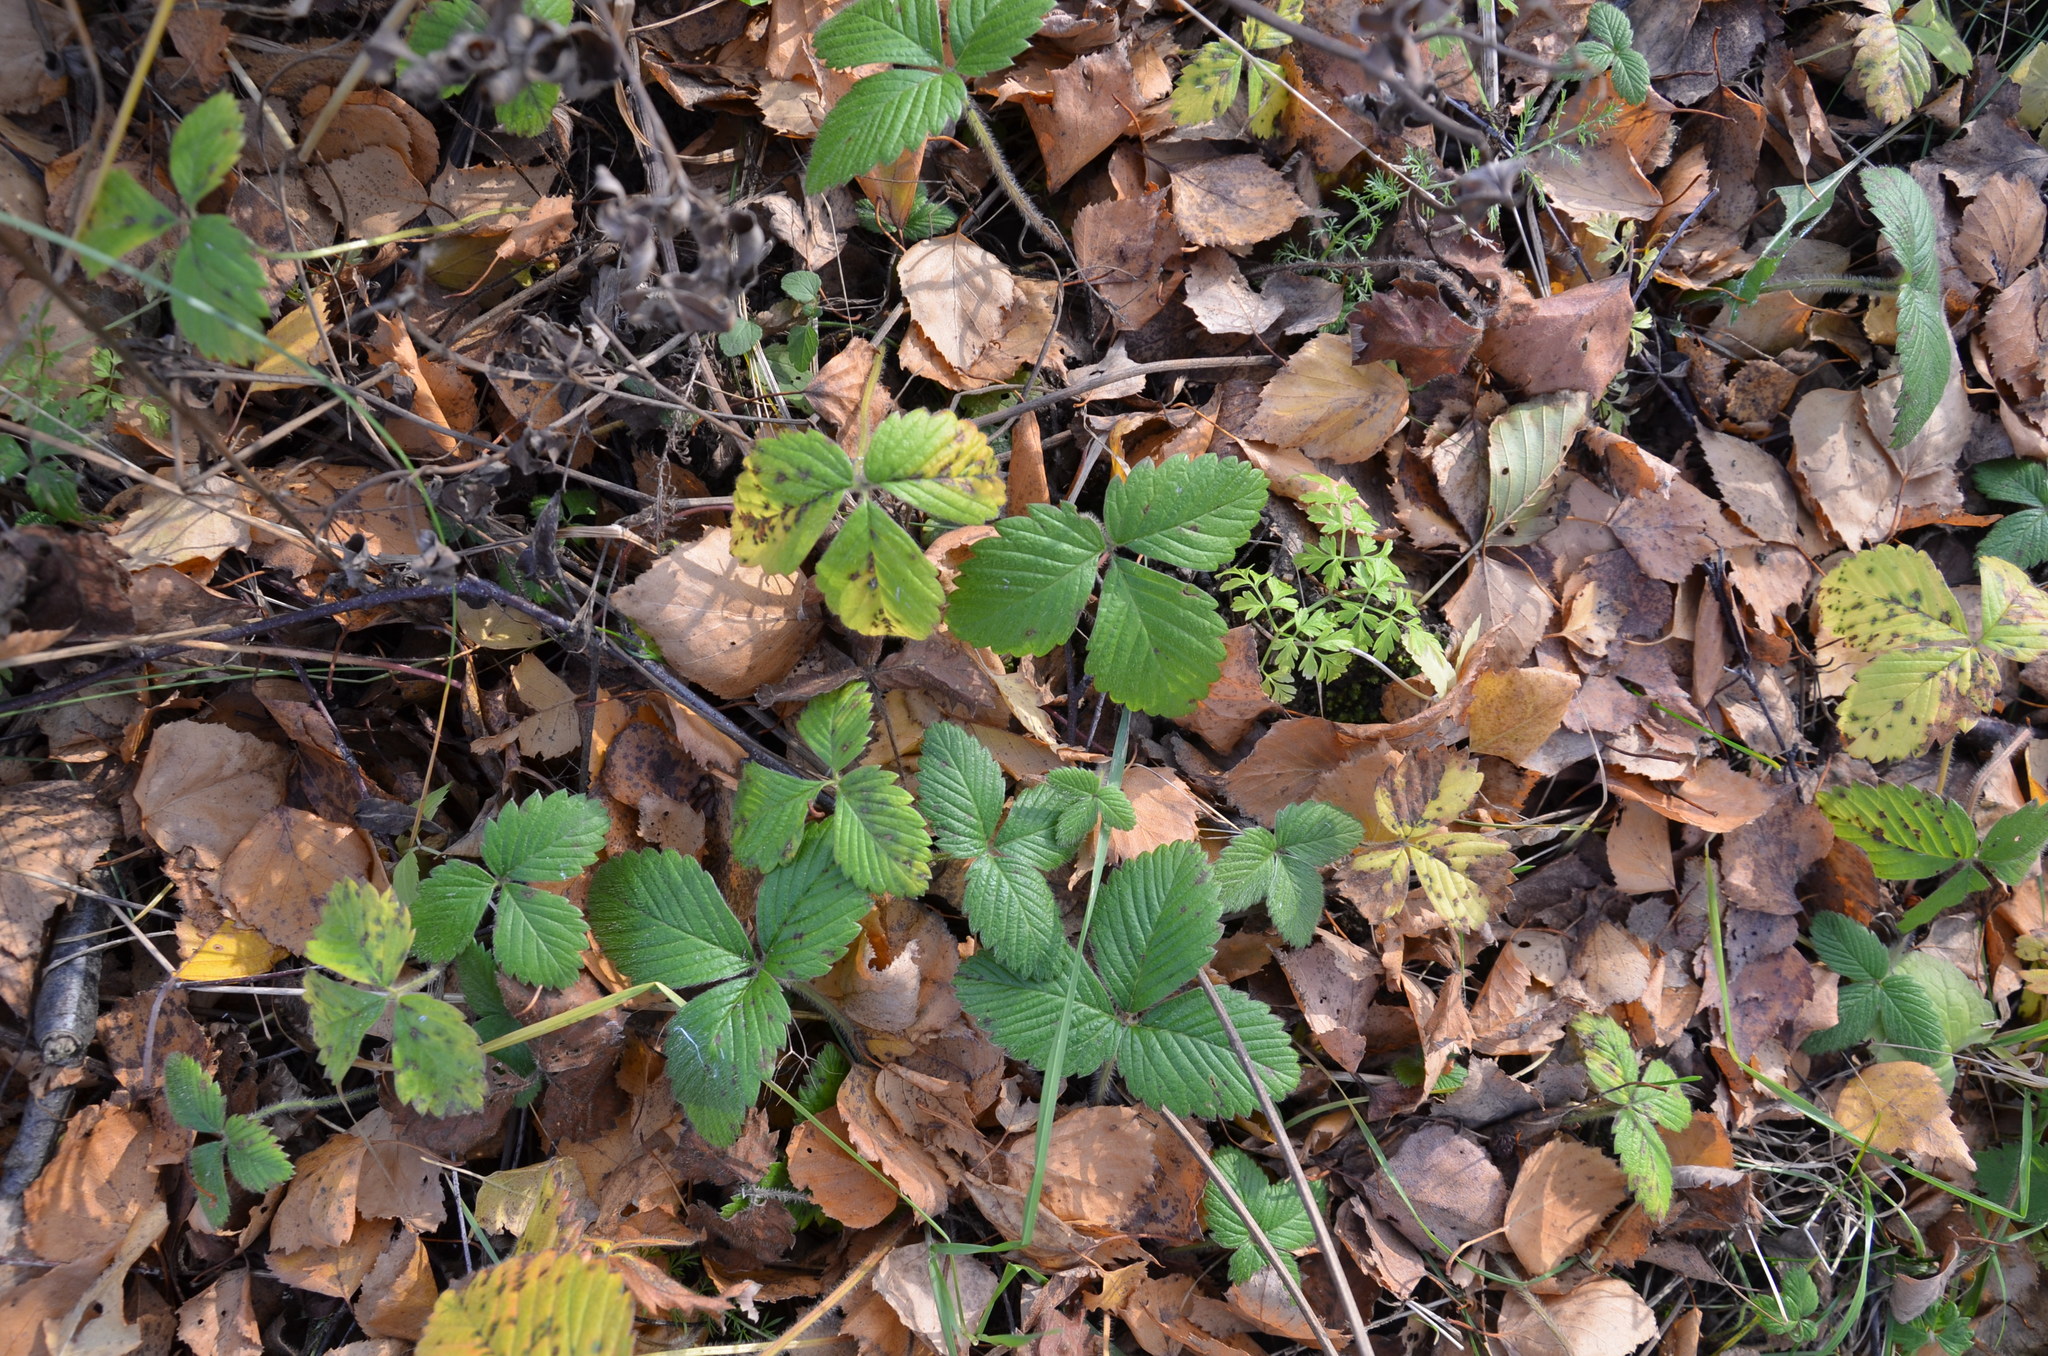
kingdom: Plantae
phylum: Tracheophyta
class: Magnoliopsida
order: Rosales
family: Rosaceae
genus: Fragaria
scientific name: Fragaria moschata
